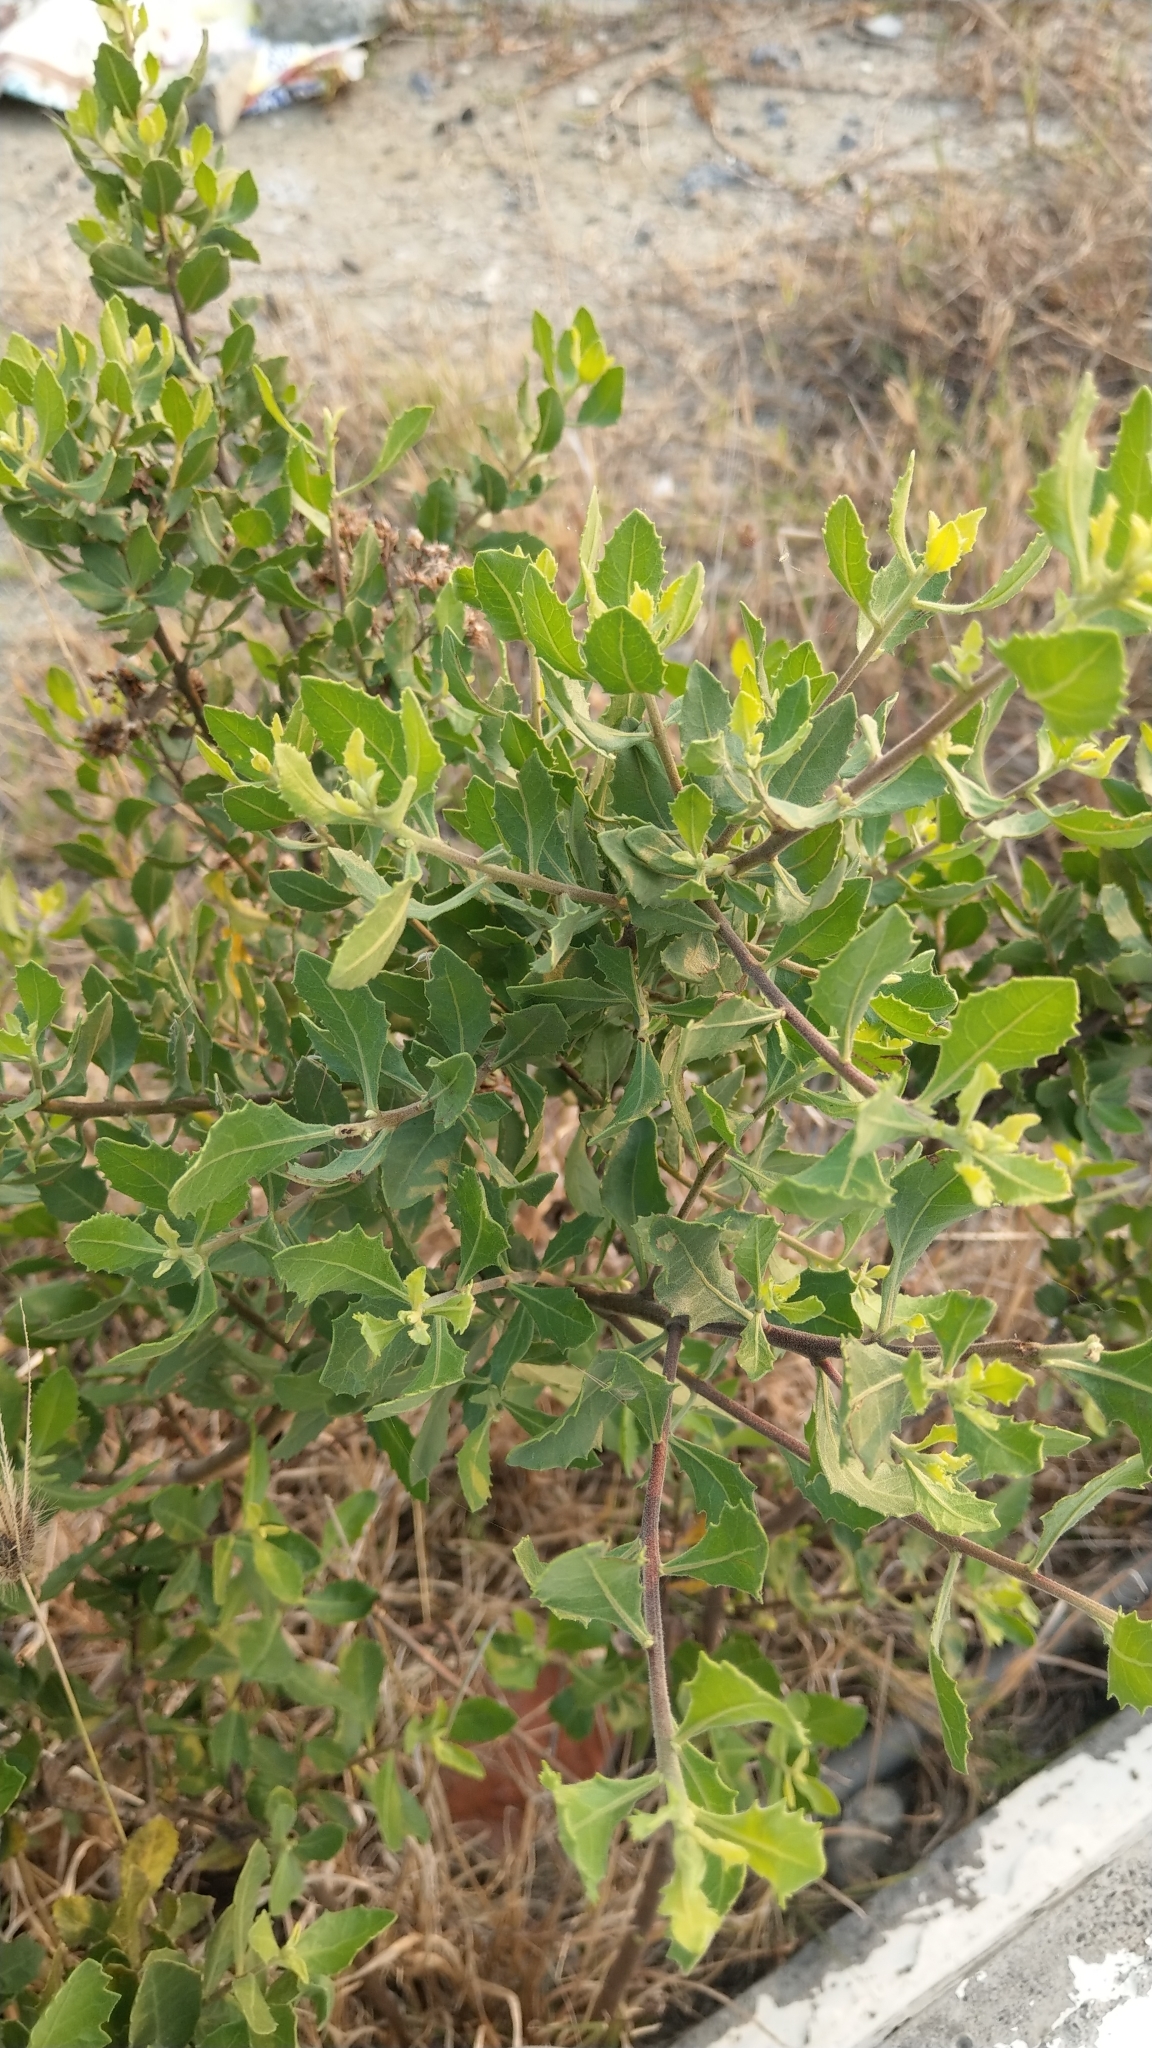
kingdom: Plantae
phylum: Tracheophyta
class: Magnoliopsida
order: Asterales
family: Asteraceae
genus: Pluchea
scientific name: Pluchea indica
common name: Indian fleabane
